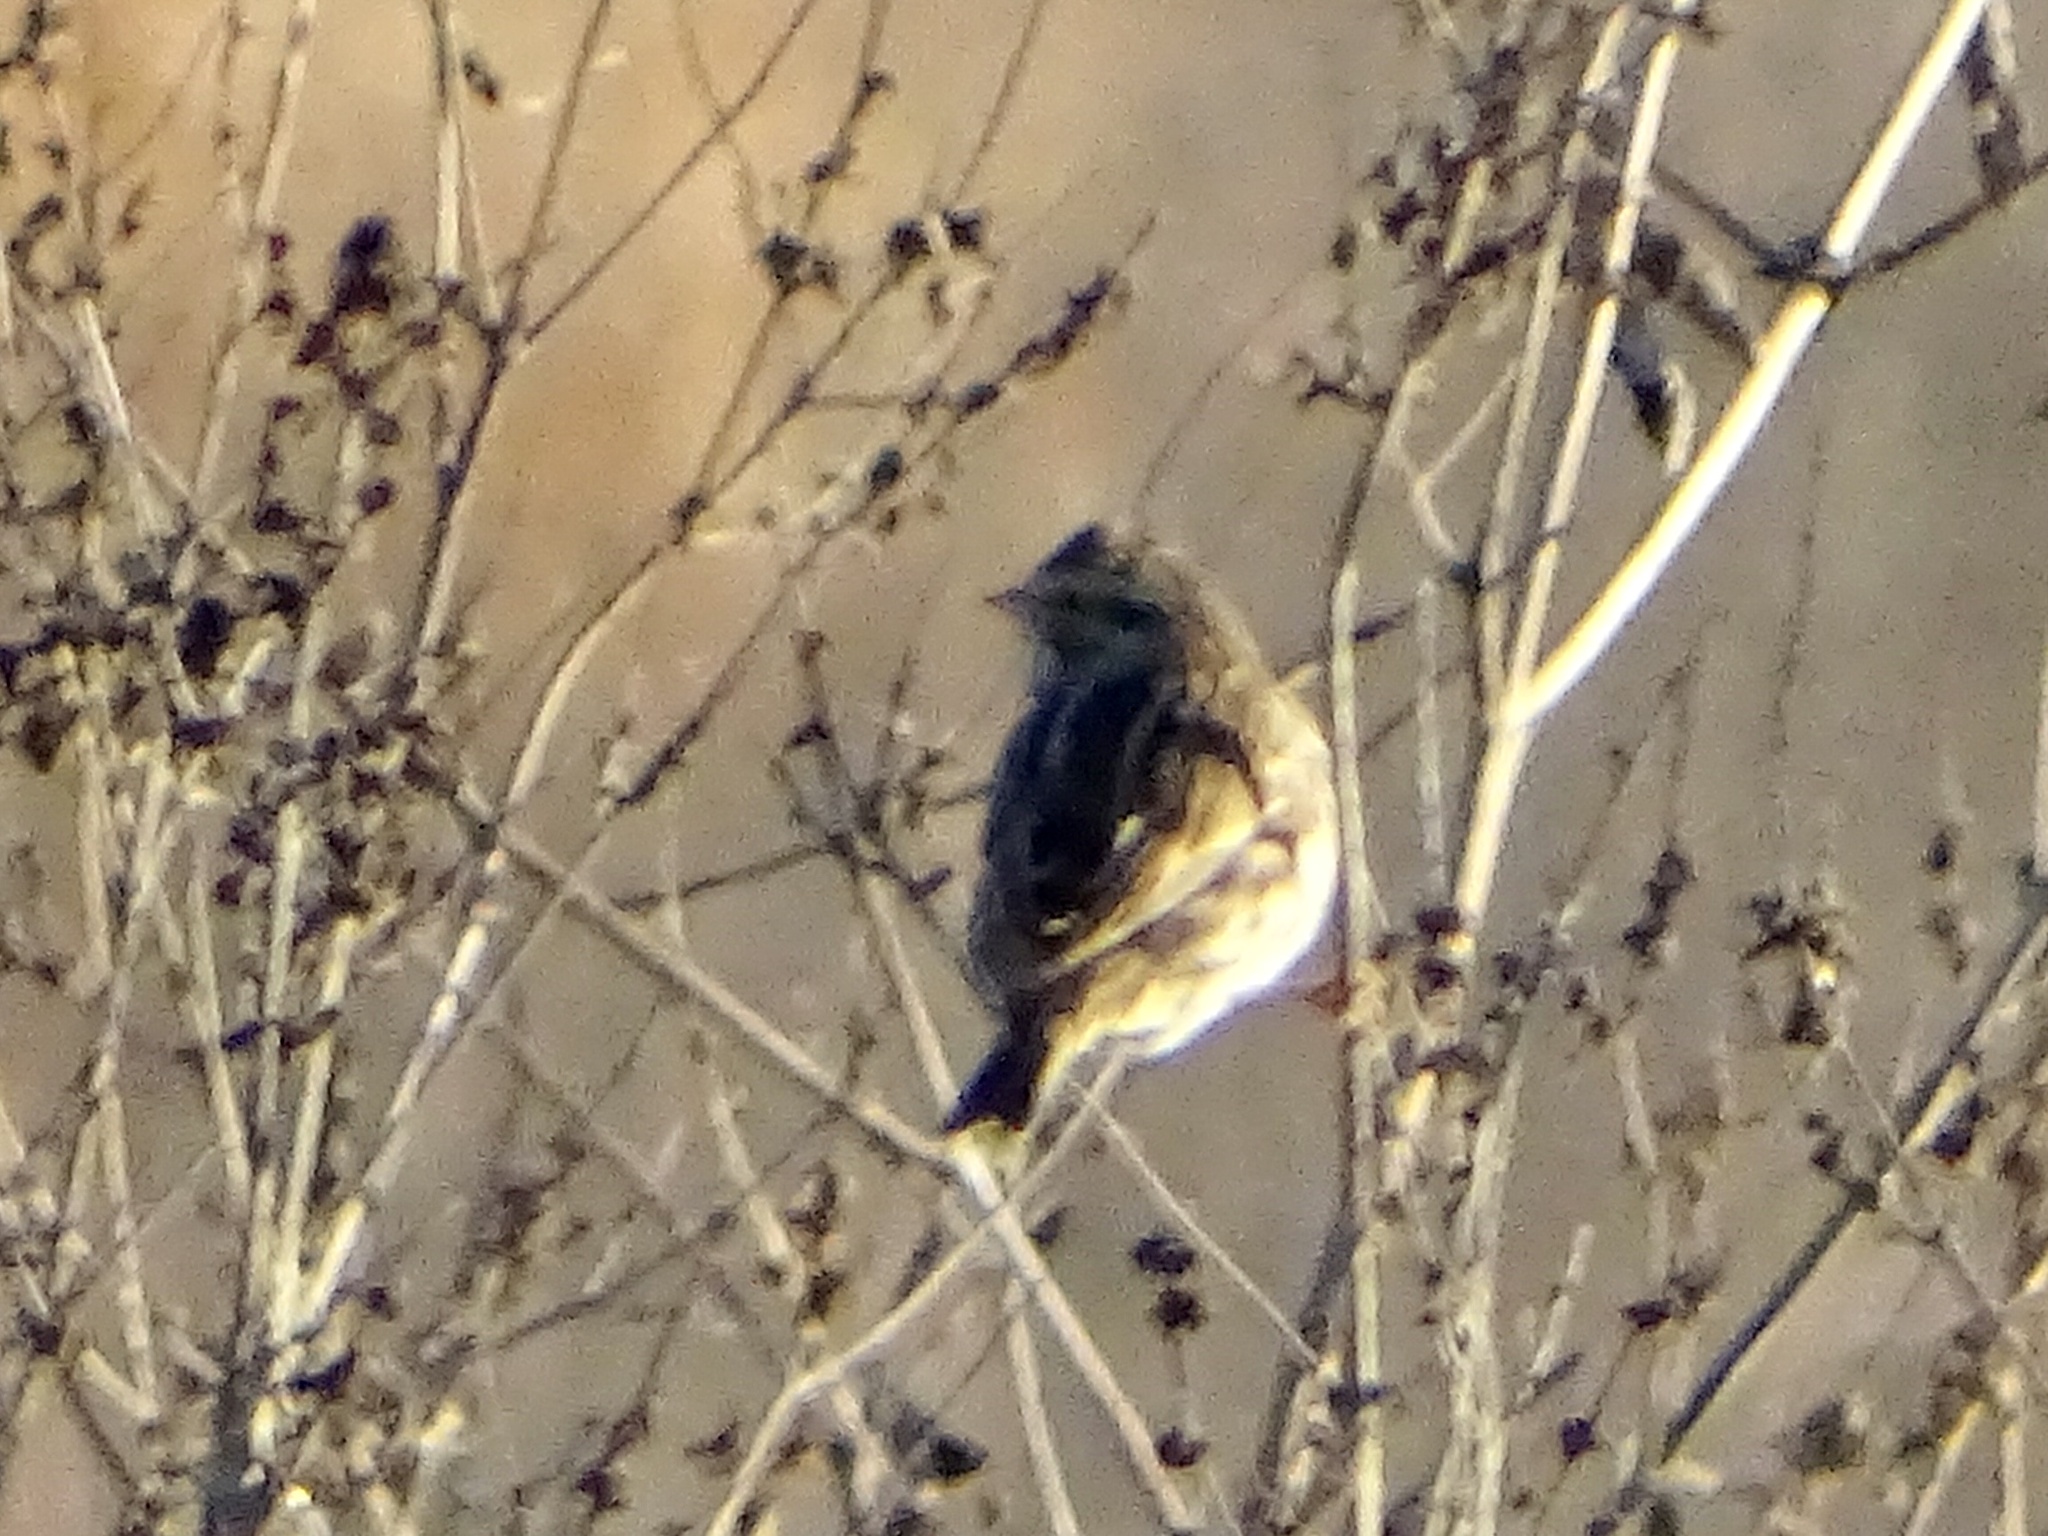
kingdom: Animalia
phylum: Chordata
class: Aves
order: Passeriformes
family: Passerellidae
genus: Passerculus
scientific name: Passerculus sandwichensis
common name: Savannah sparrow
